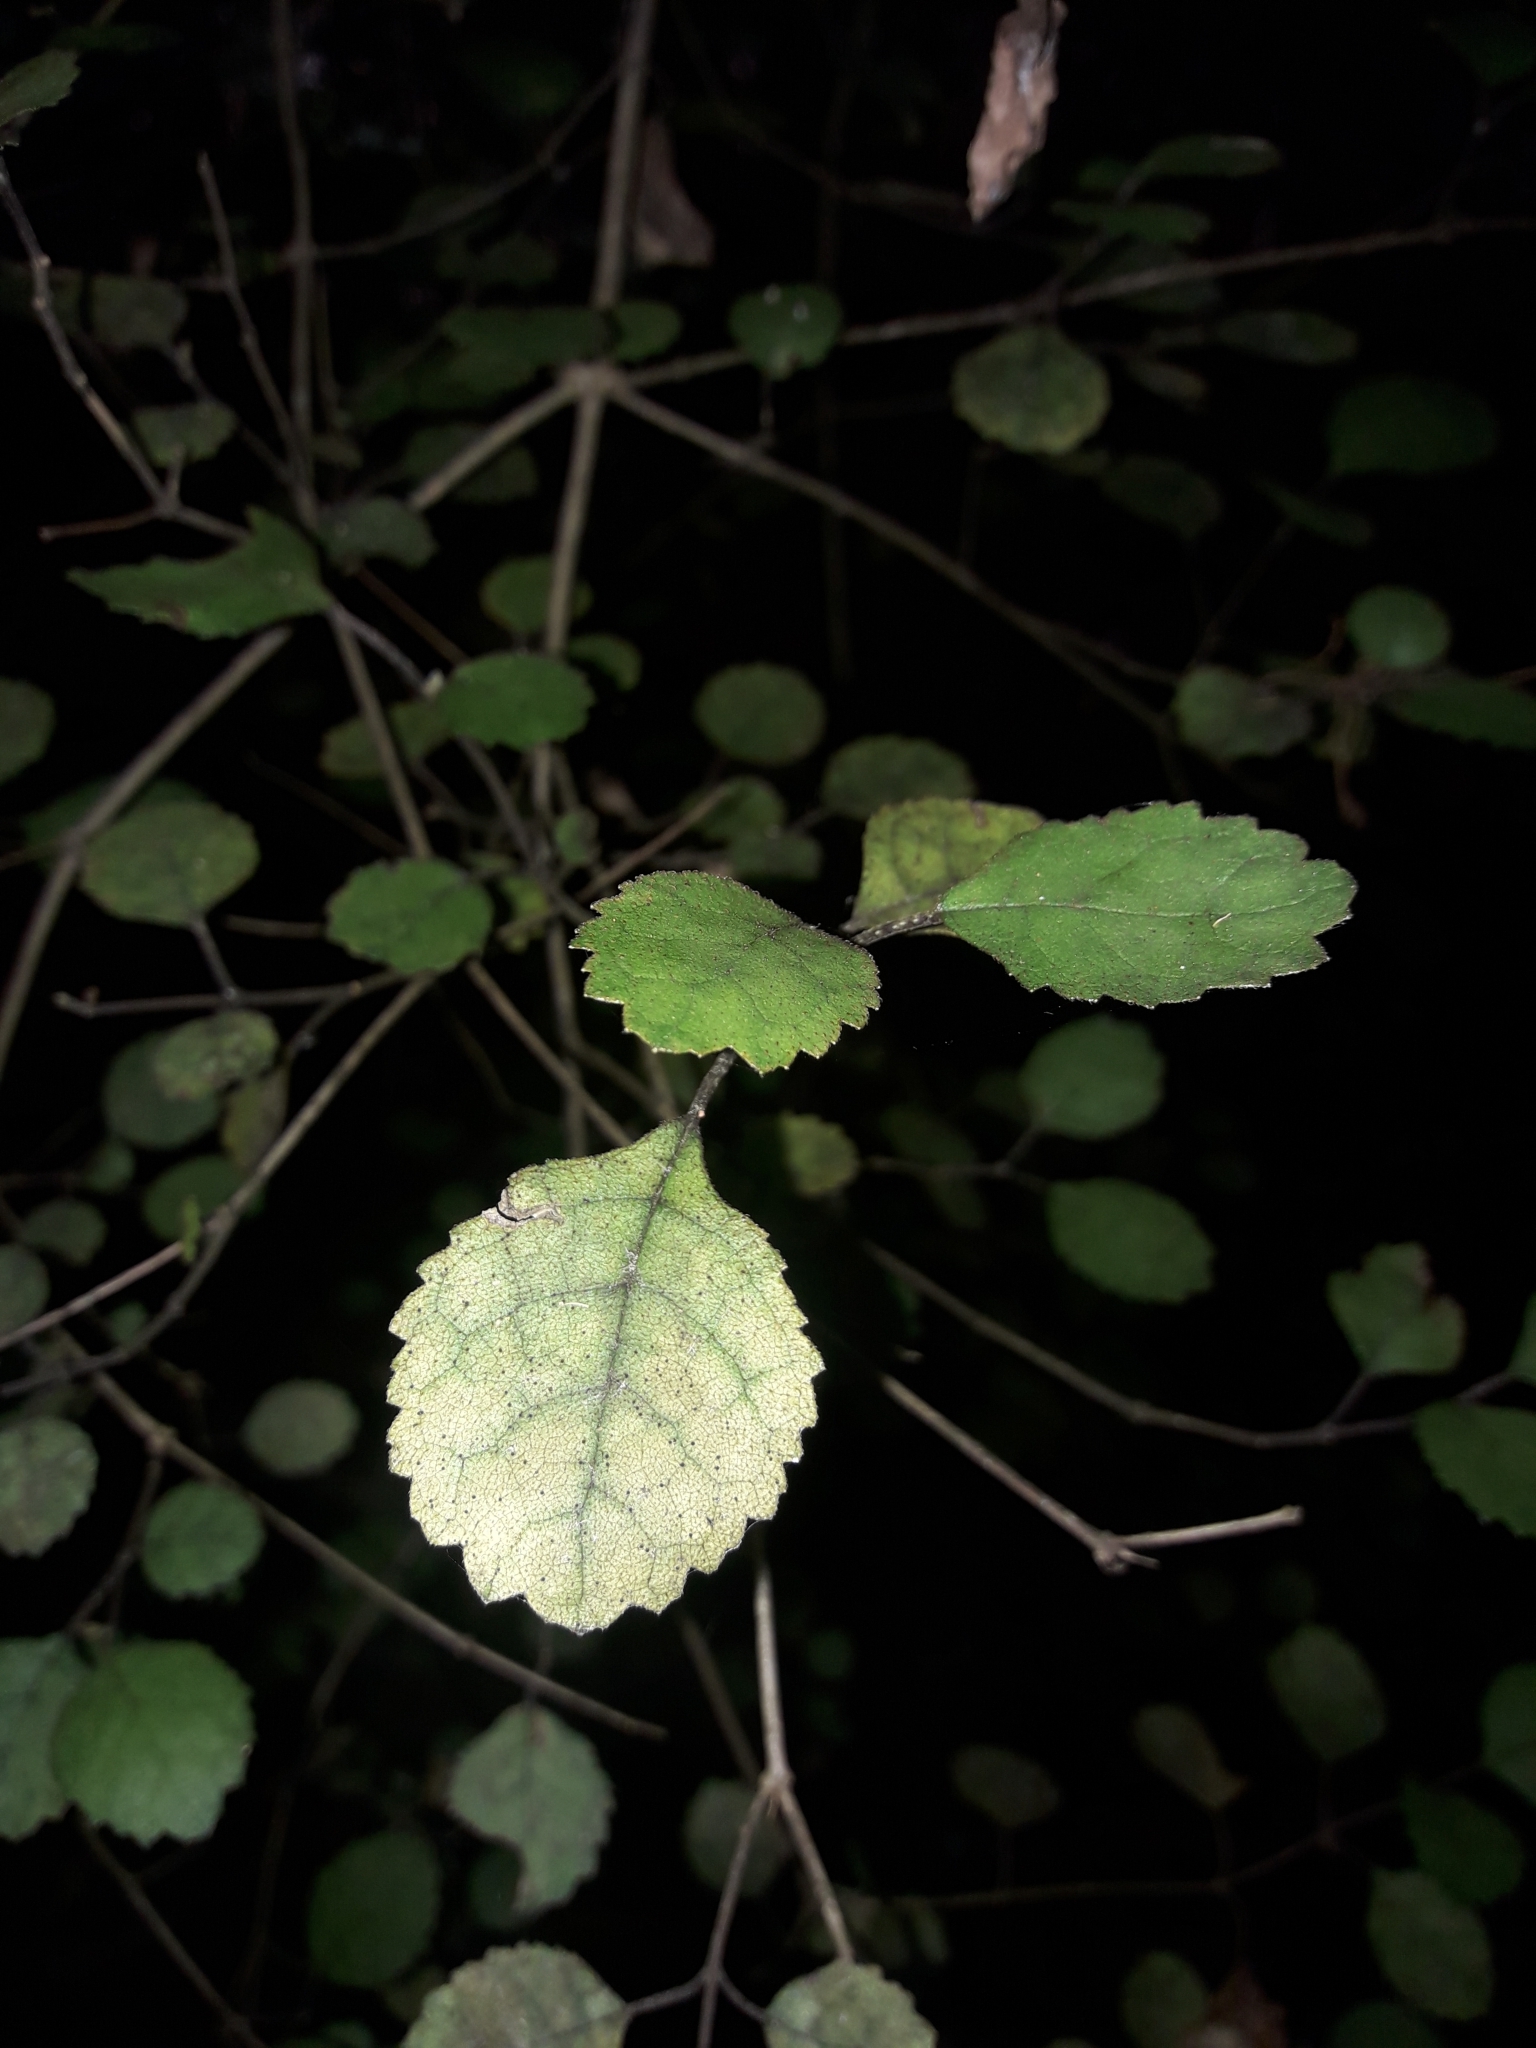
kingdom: Plantae
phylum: Tracheophyta
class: Magnoliopsida
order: Lamiales
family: Gesneriaceae
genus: Rhabdothamnus
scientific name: Rhabdothamnus solandri
